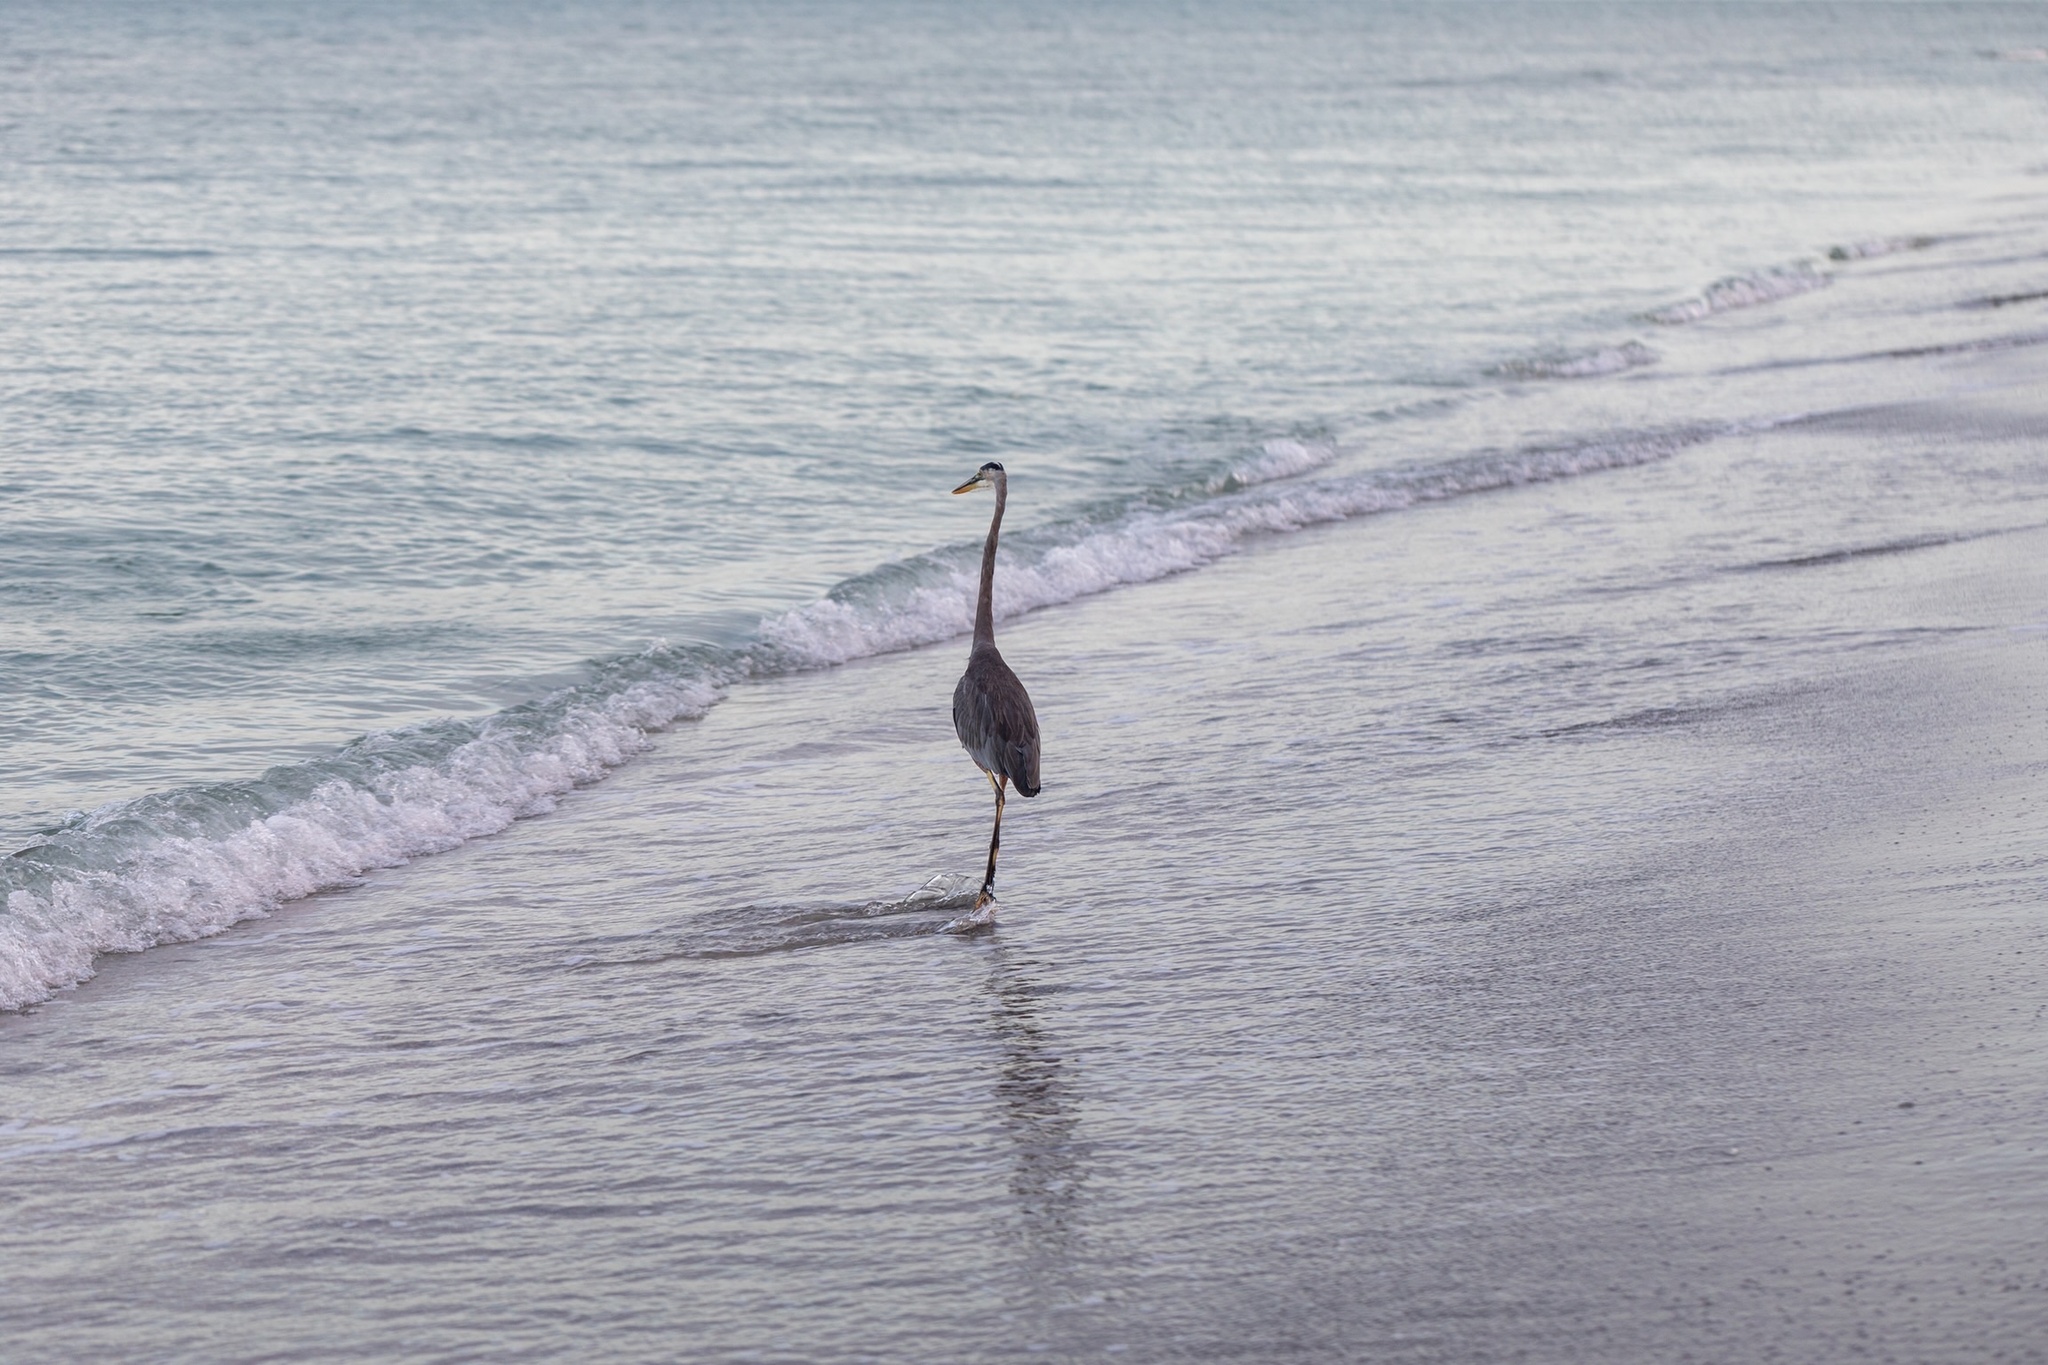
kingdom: Animalia
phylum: Chordata
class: Aves
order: Pelecaniformes
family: Ardeidae
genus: Ardea
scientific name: Ardea herodias
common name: Great blue heron
